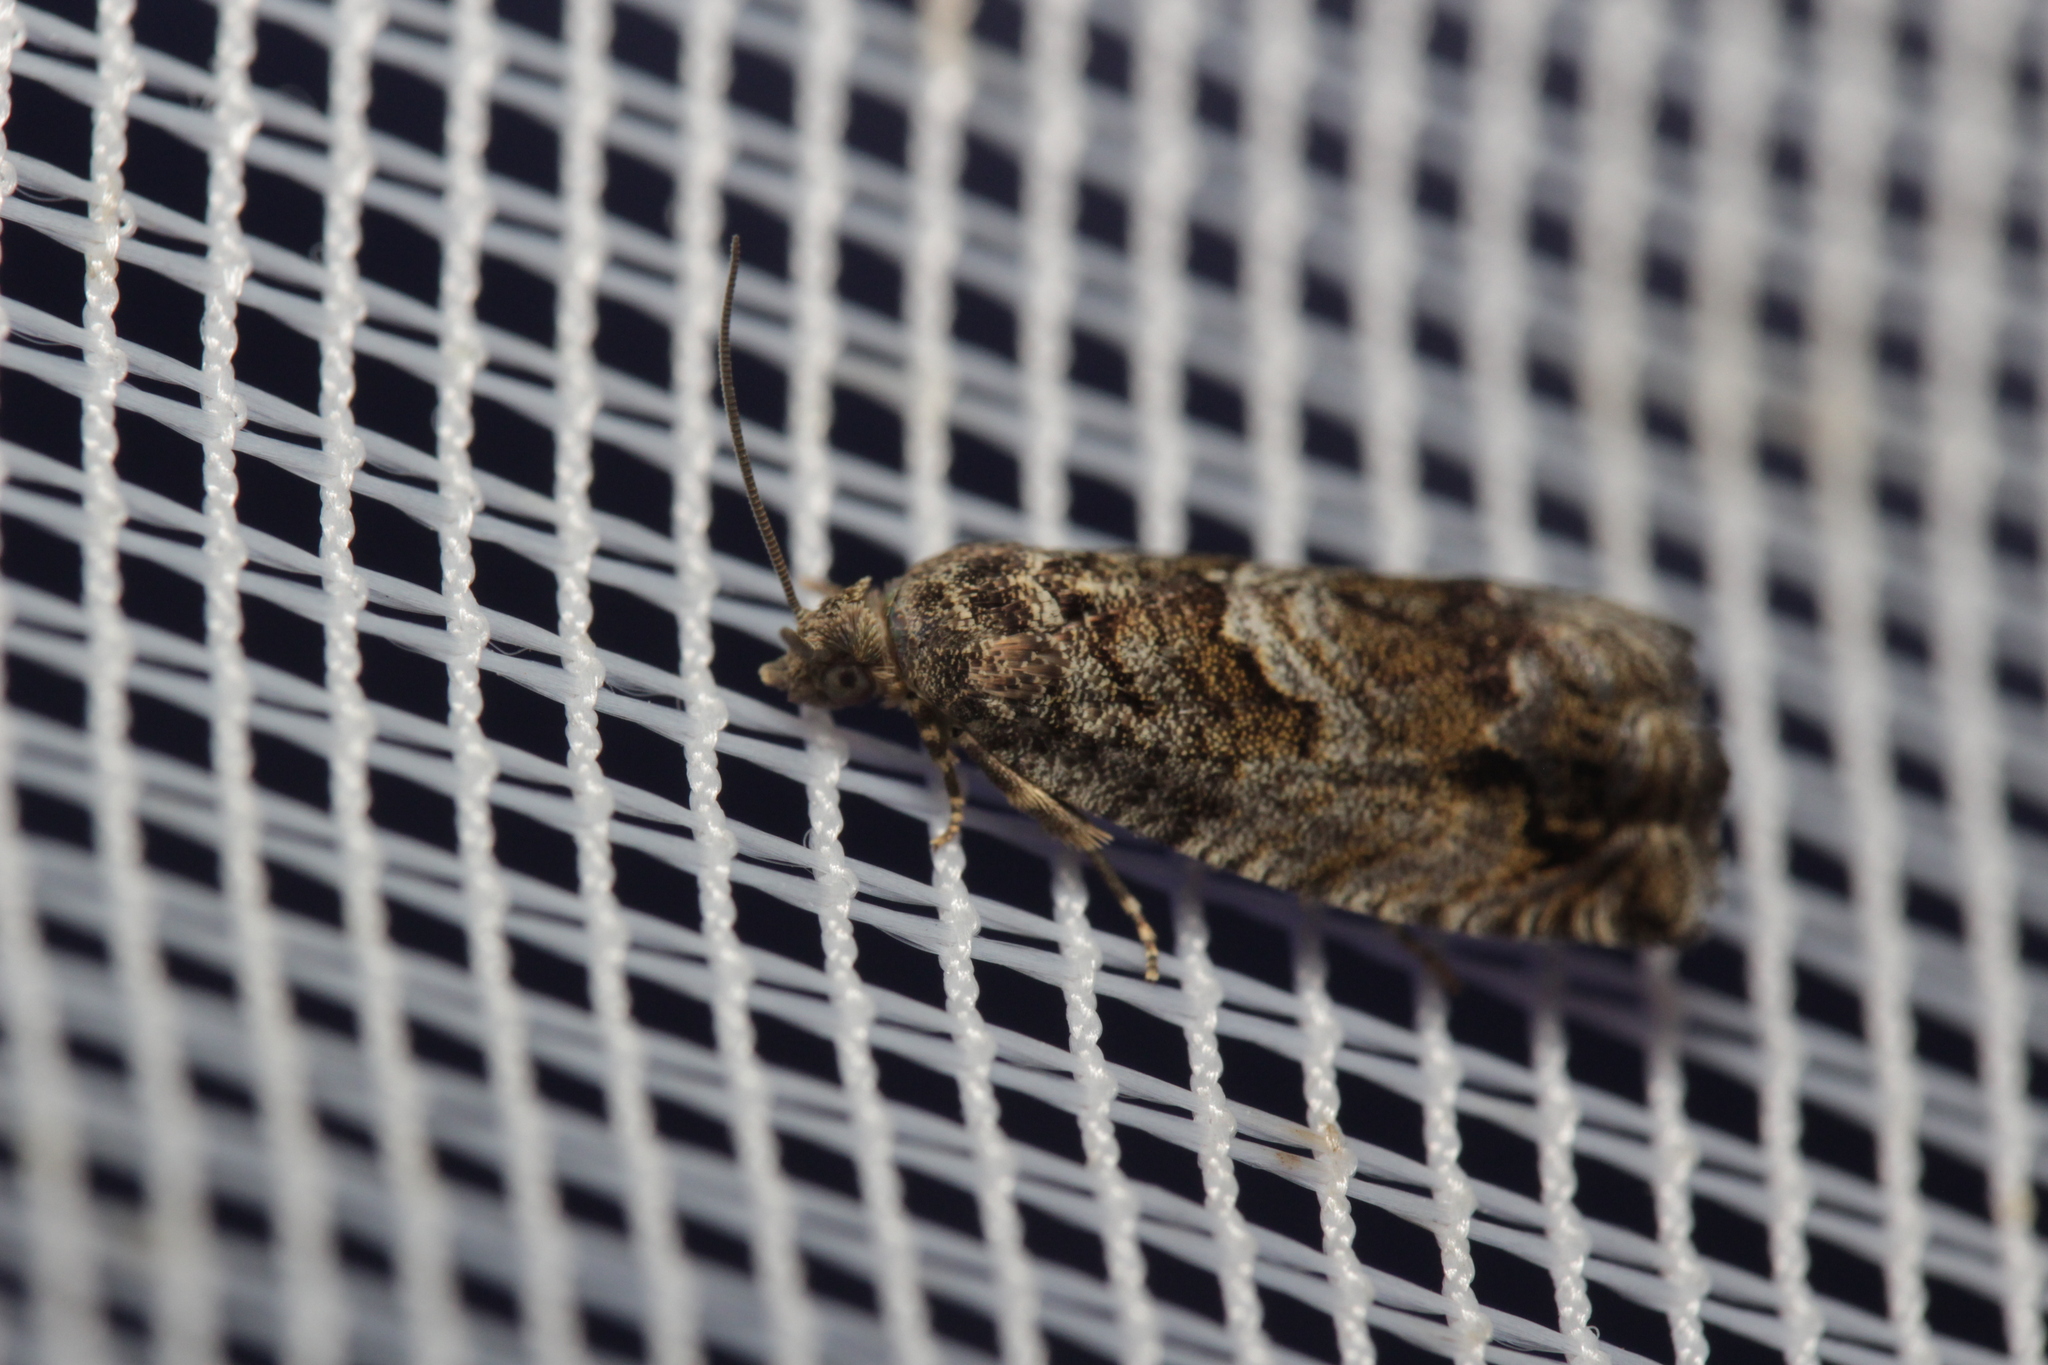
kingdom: Animalia
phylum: Arthropoda
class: Insecta
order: Lepidoptera
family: Tortricidae
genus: Cydia
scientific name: Cydia fagiglandana
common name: Large beech piercer
